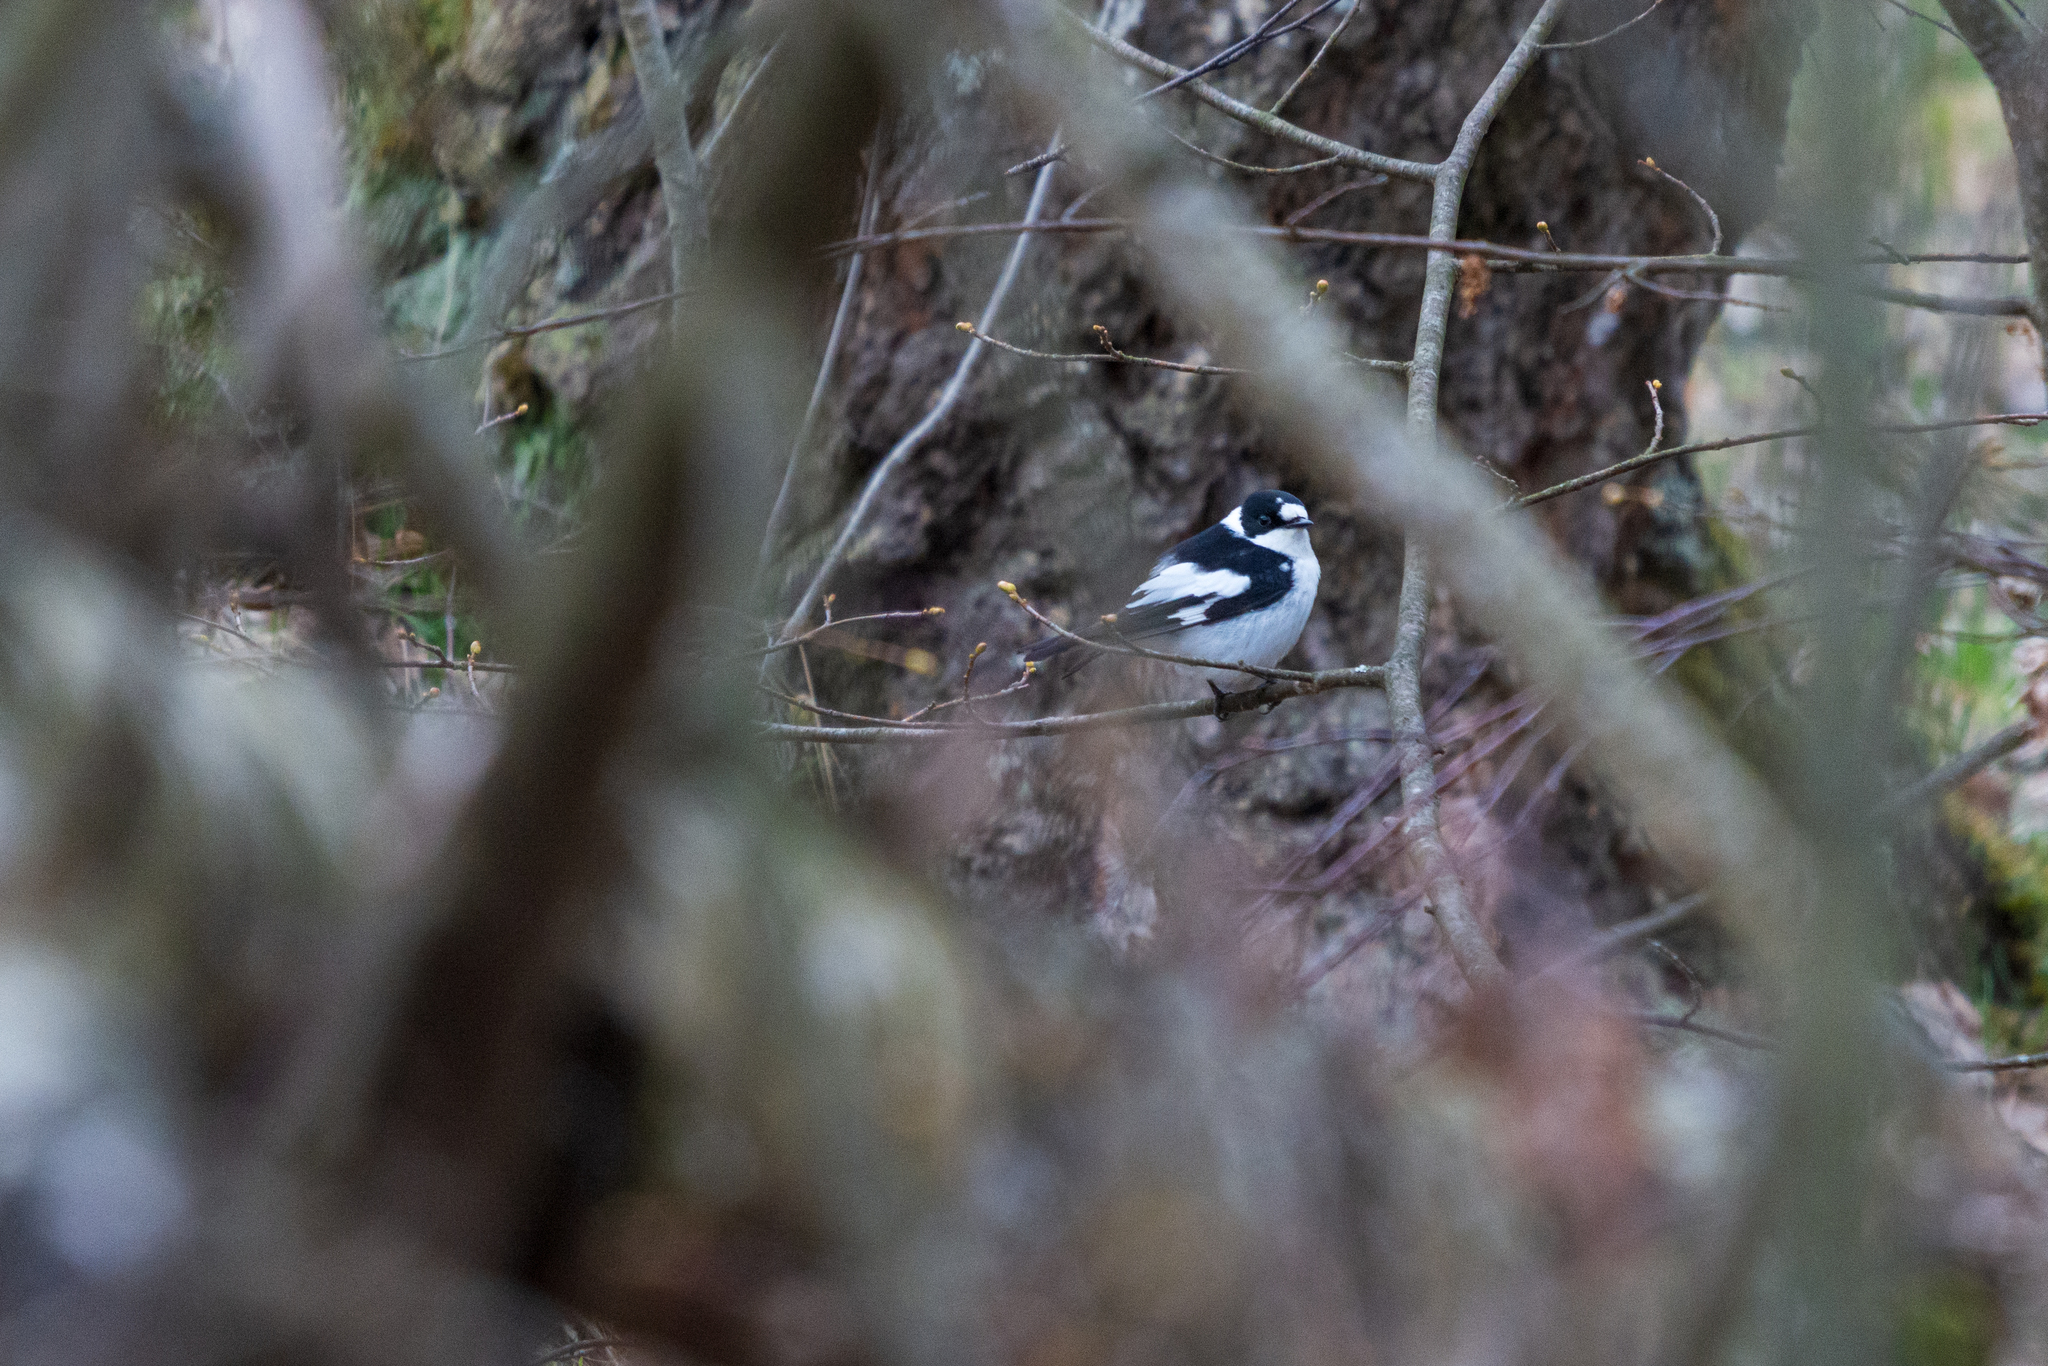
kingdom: Animalia
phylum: Chordata
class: Aves
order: Passeriformes
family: Muscicapidae
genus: Ficedula
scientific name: Ficedula albicollis
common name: Collared flycatcher
